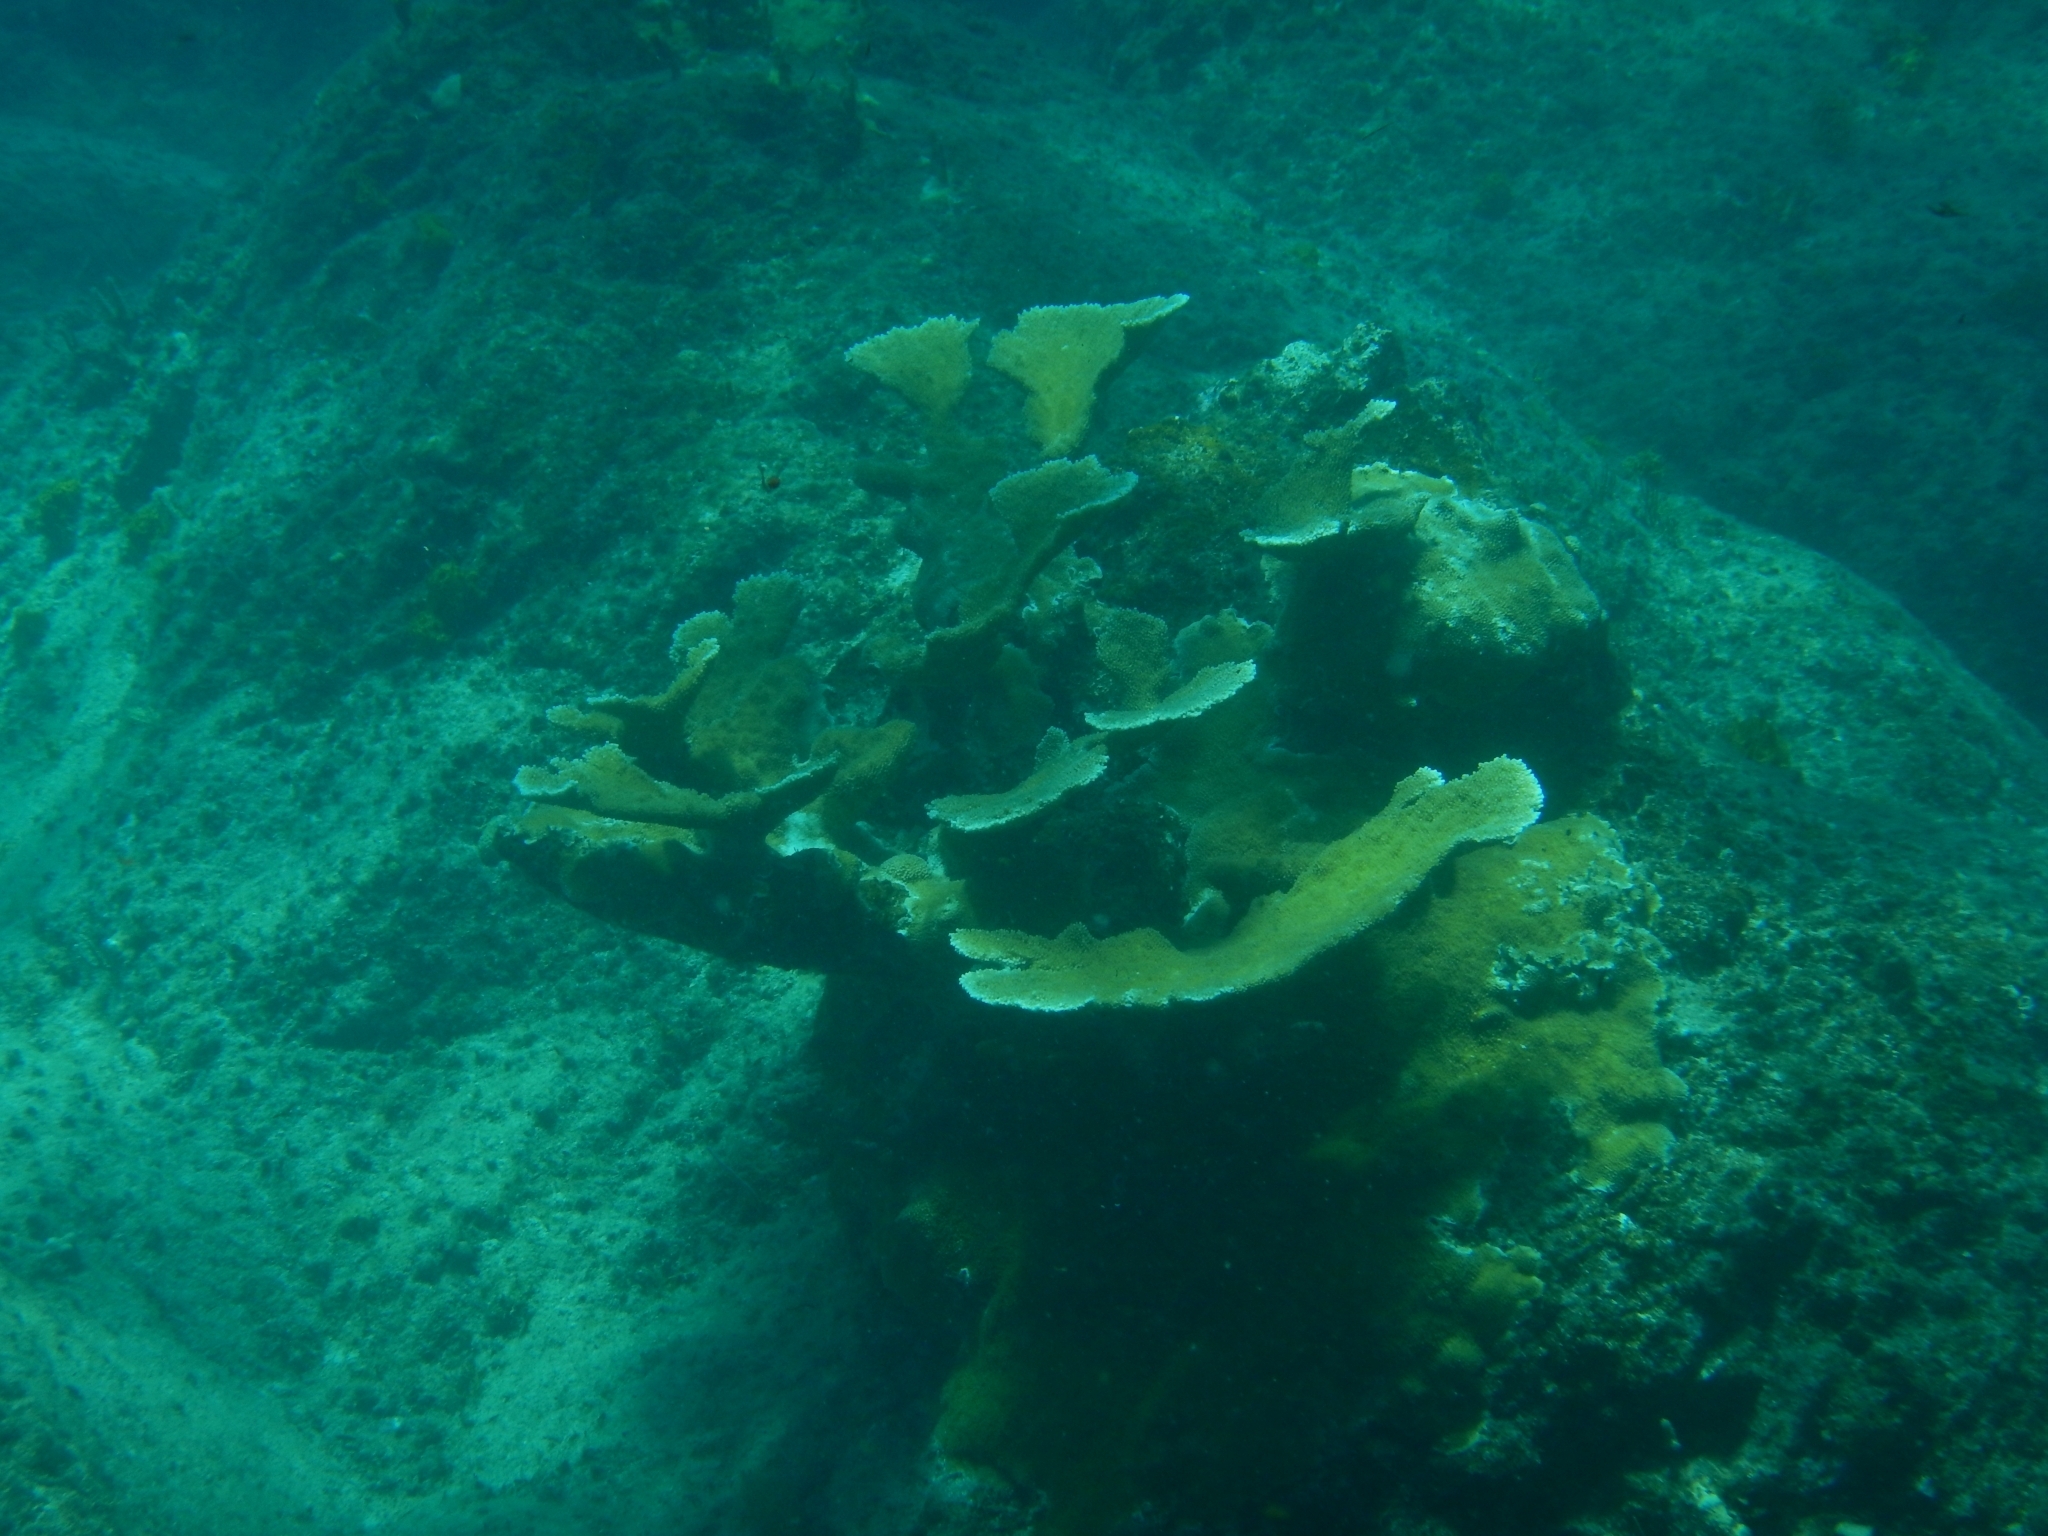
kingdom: Animalia
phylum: Cnidaria
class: Anthozoa
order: Scleractinia
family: Acroporidae
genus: Acropora
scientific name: Acropora palmata
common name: Elkhorn coral
